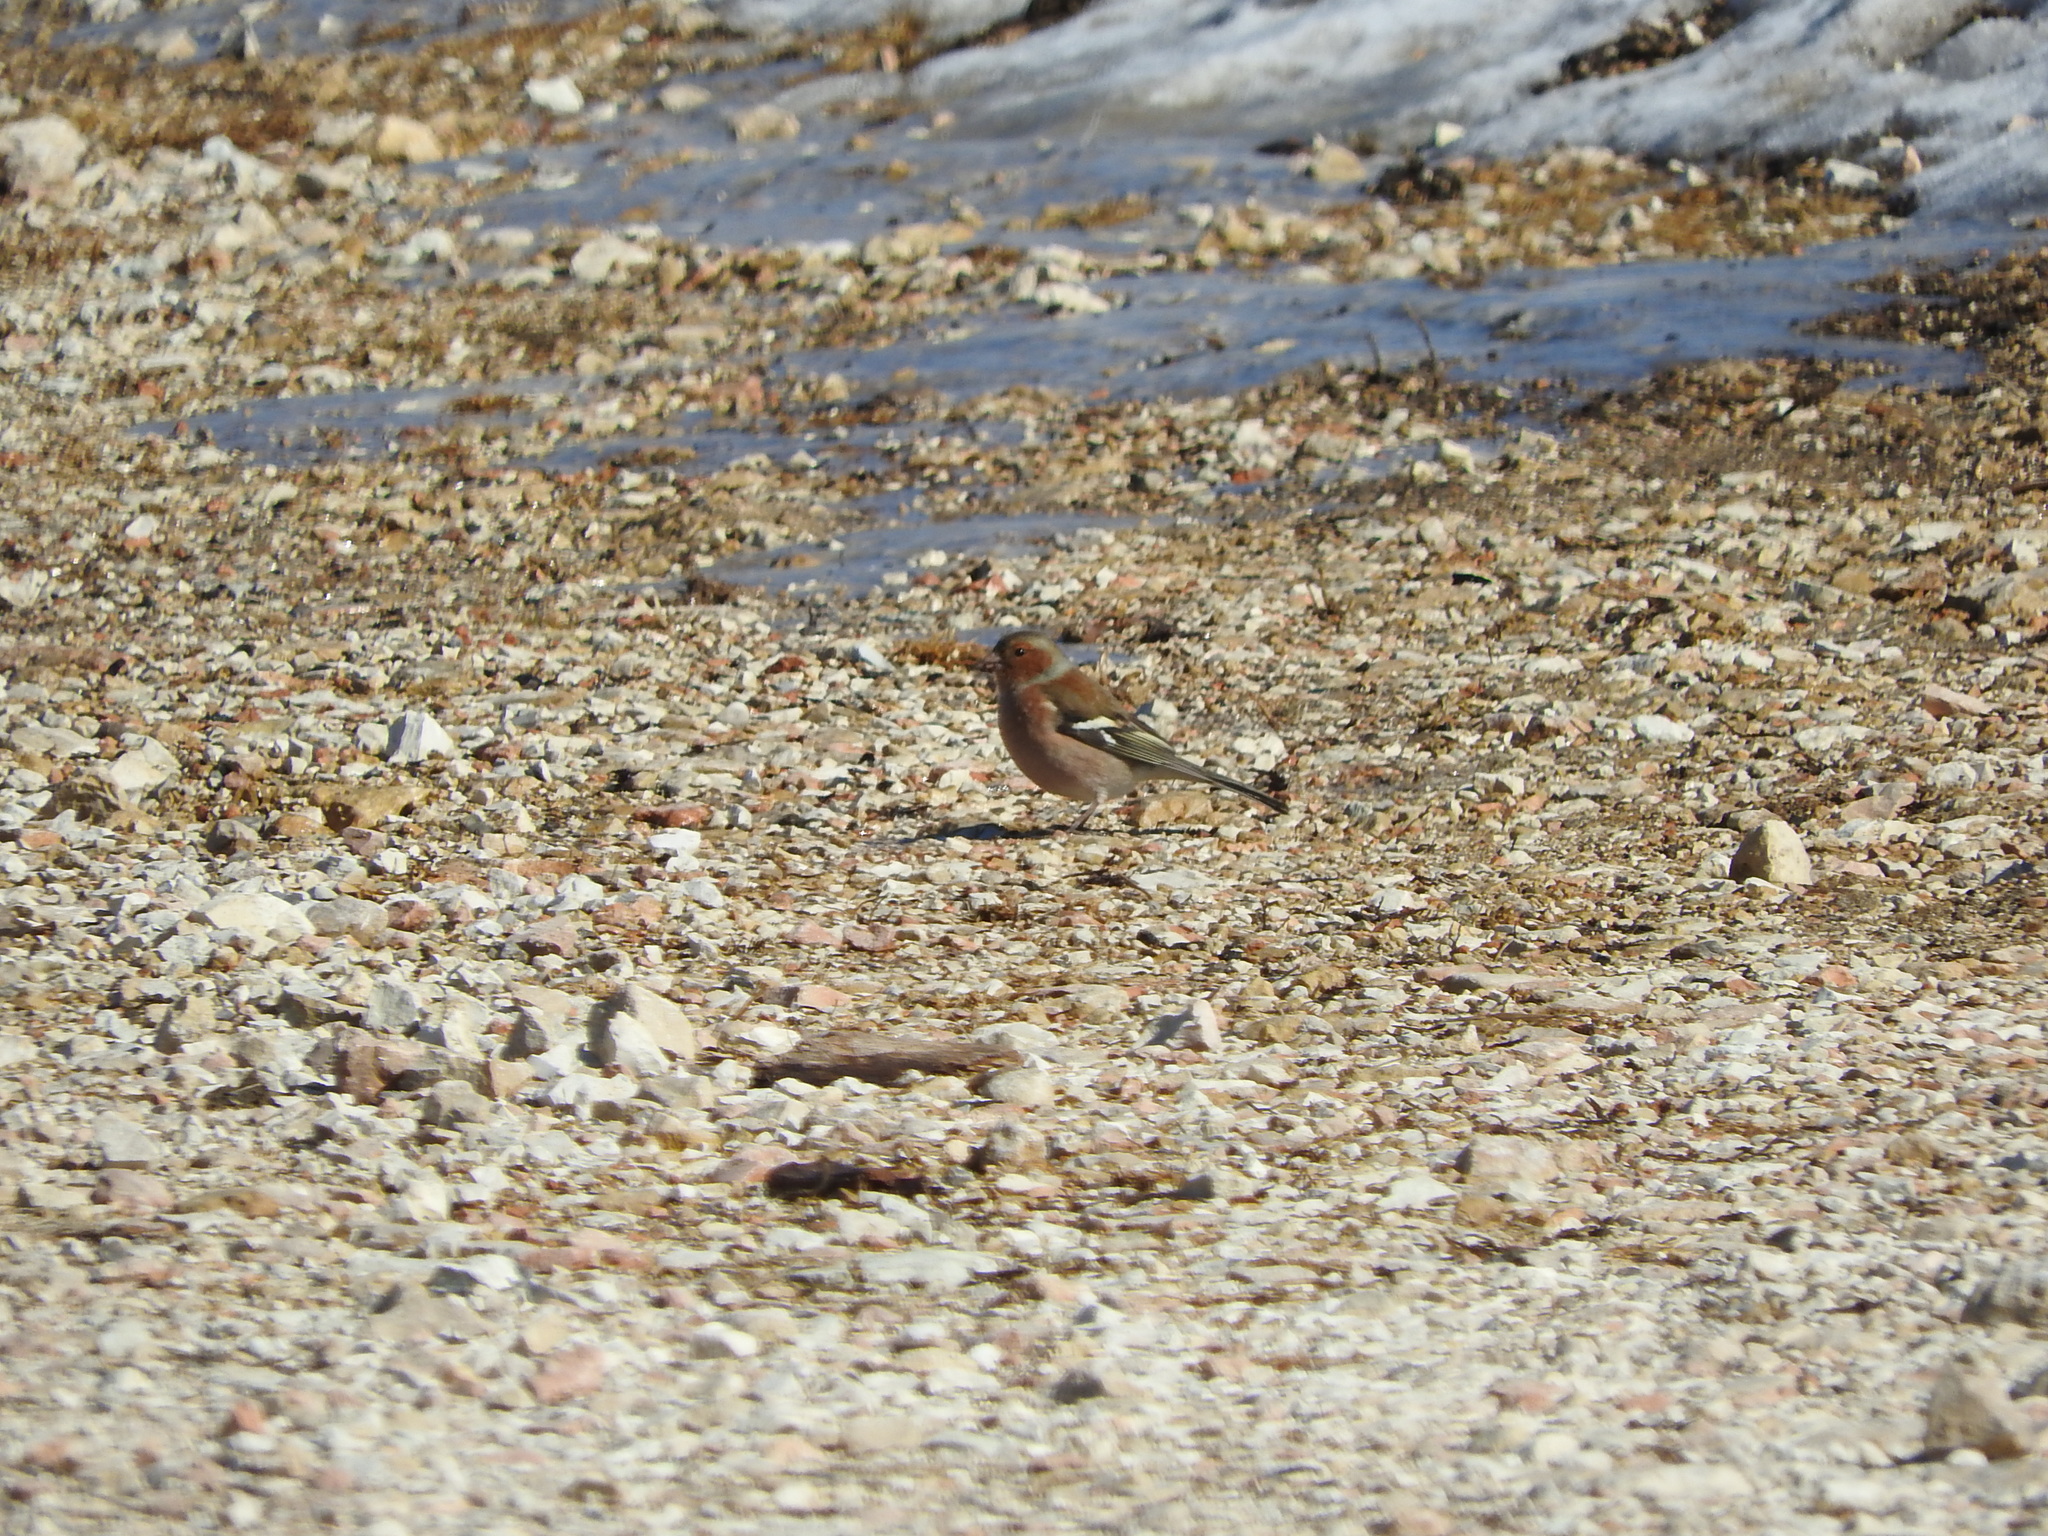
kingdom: Animalia
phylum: Chordata
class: Aves
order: Passeriformes
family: Fringillidae
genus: Fringilla
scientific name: Fringilla coelebs
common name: Common chaffinch
